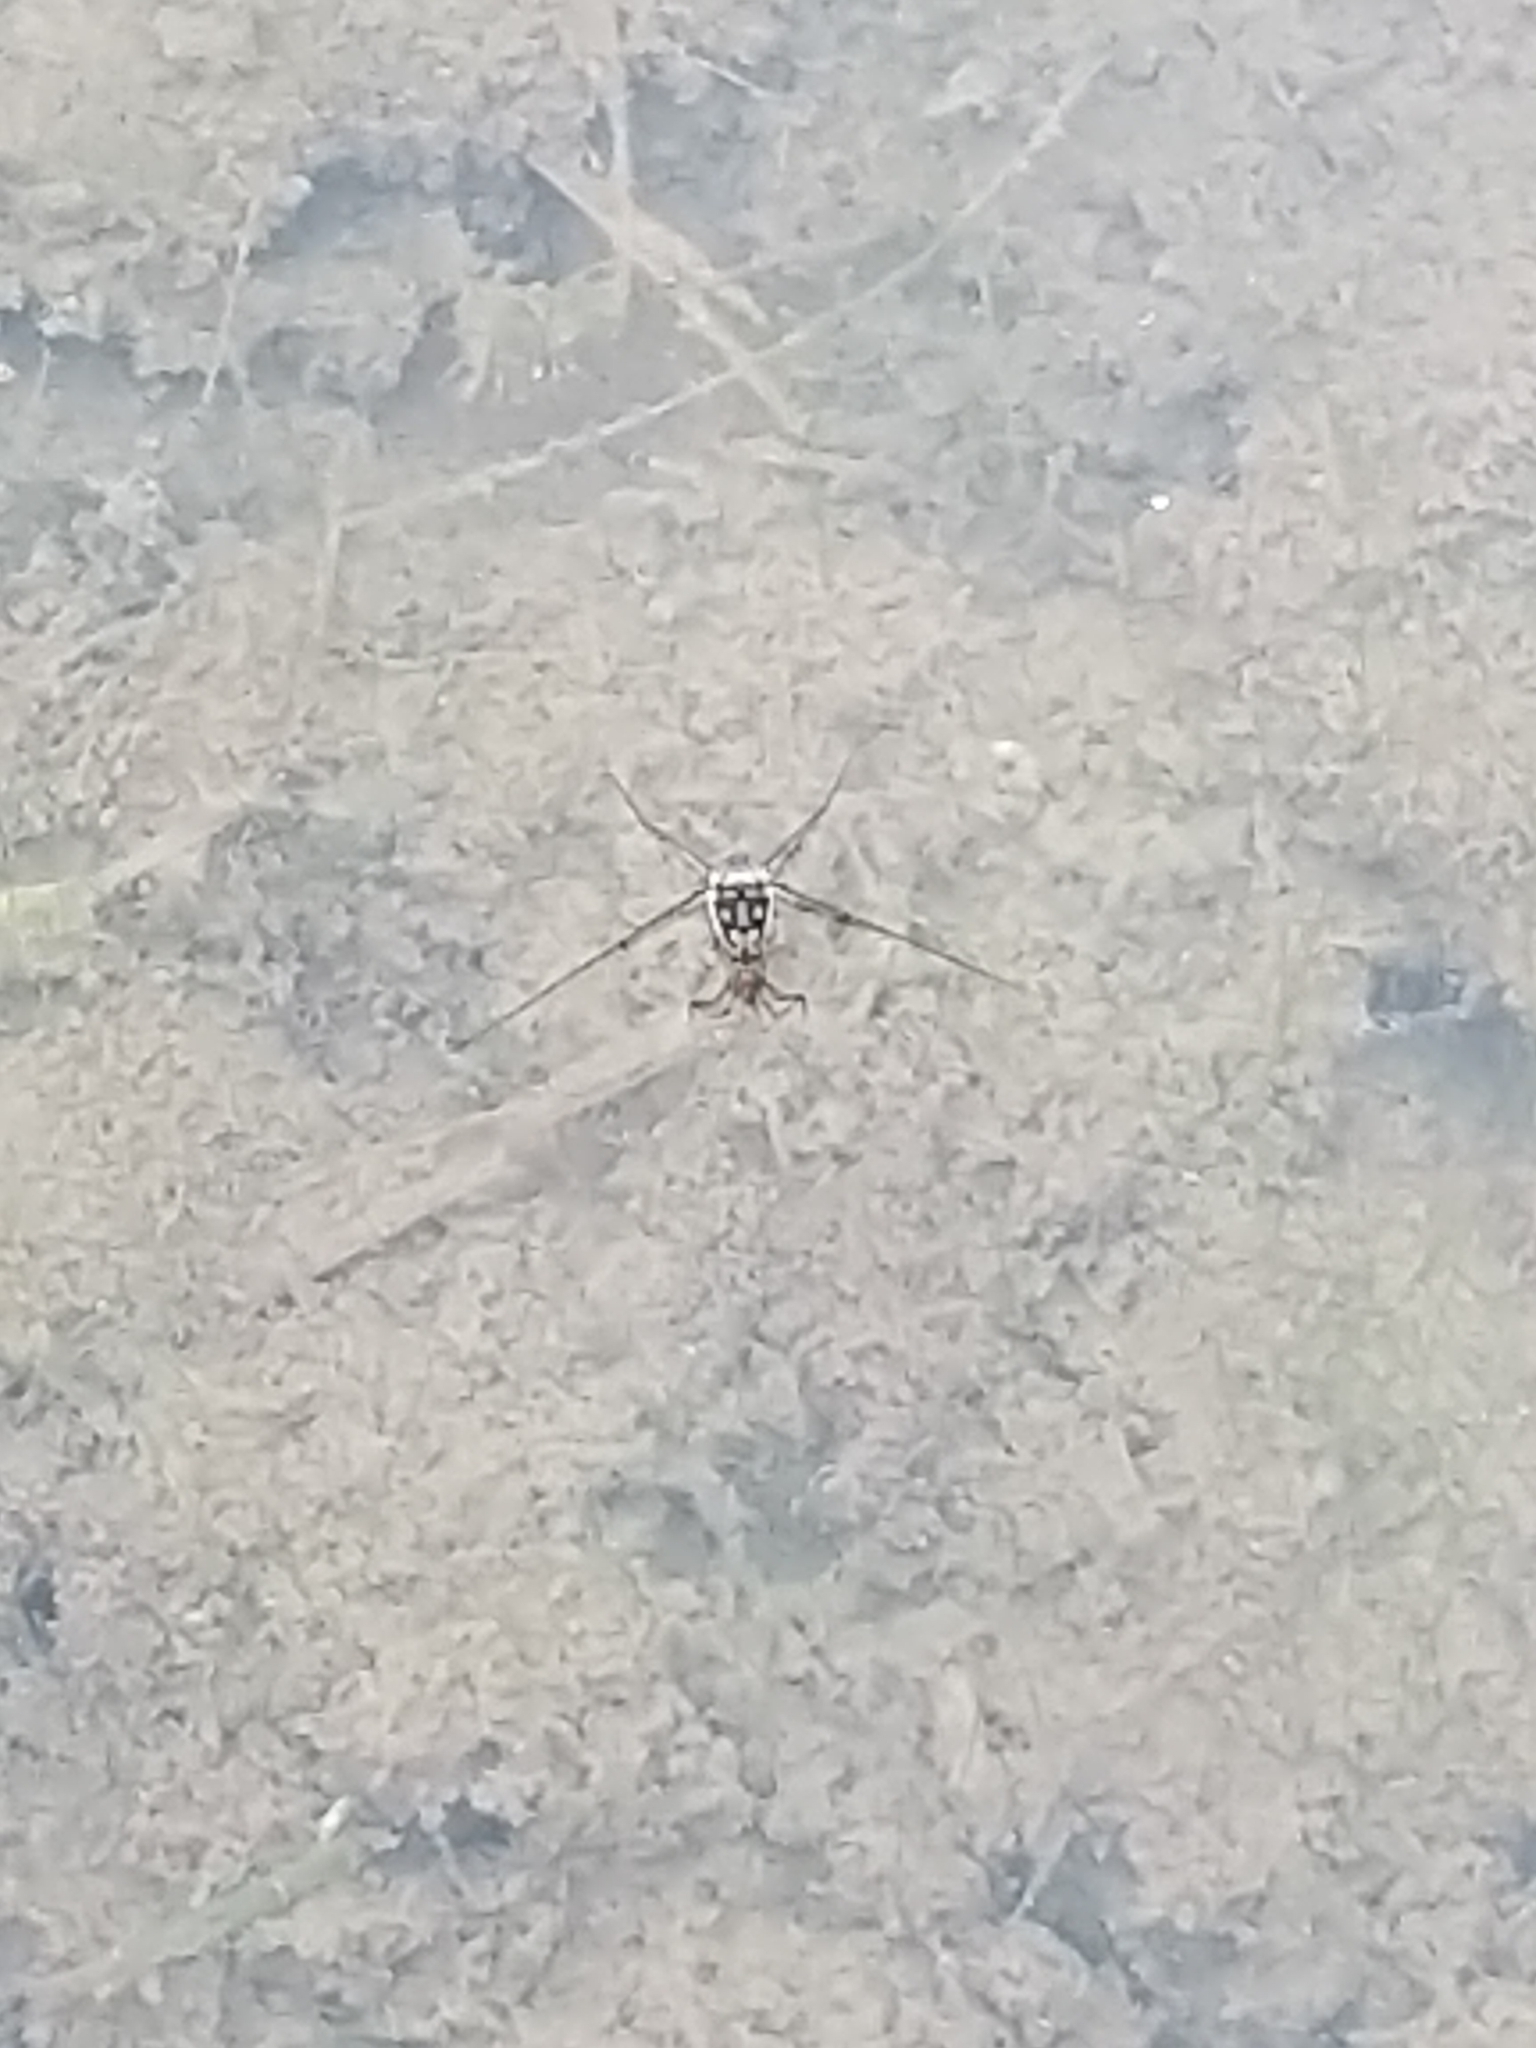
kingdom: Animalia
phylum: Arthropoda
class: Insecta
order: Hemiptera
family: Gerridae
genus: Trepobates
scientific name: Trepobates
